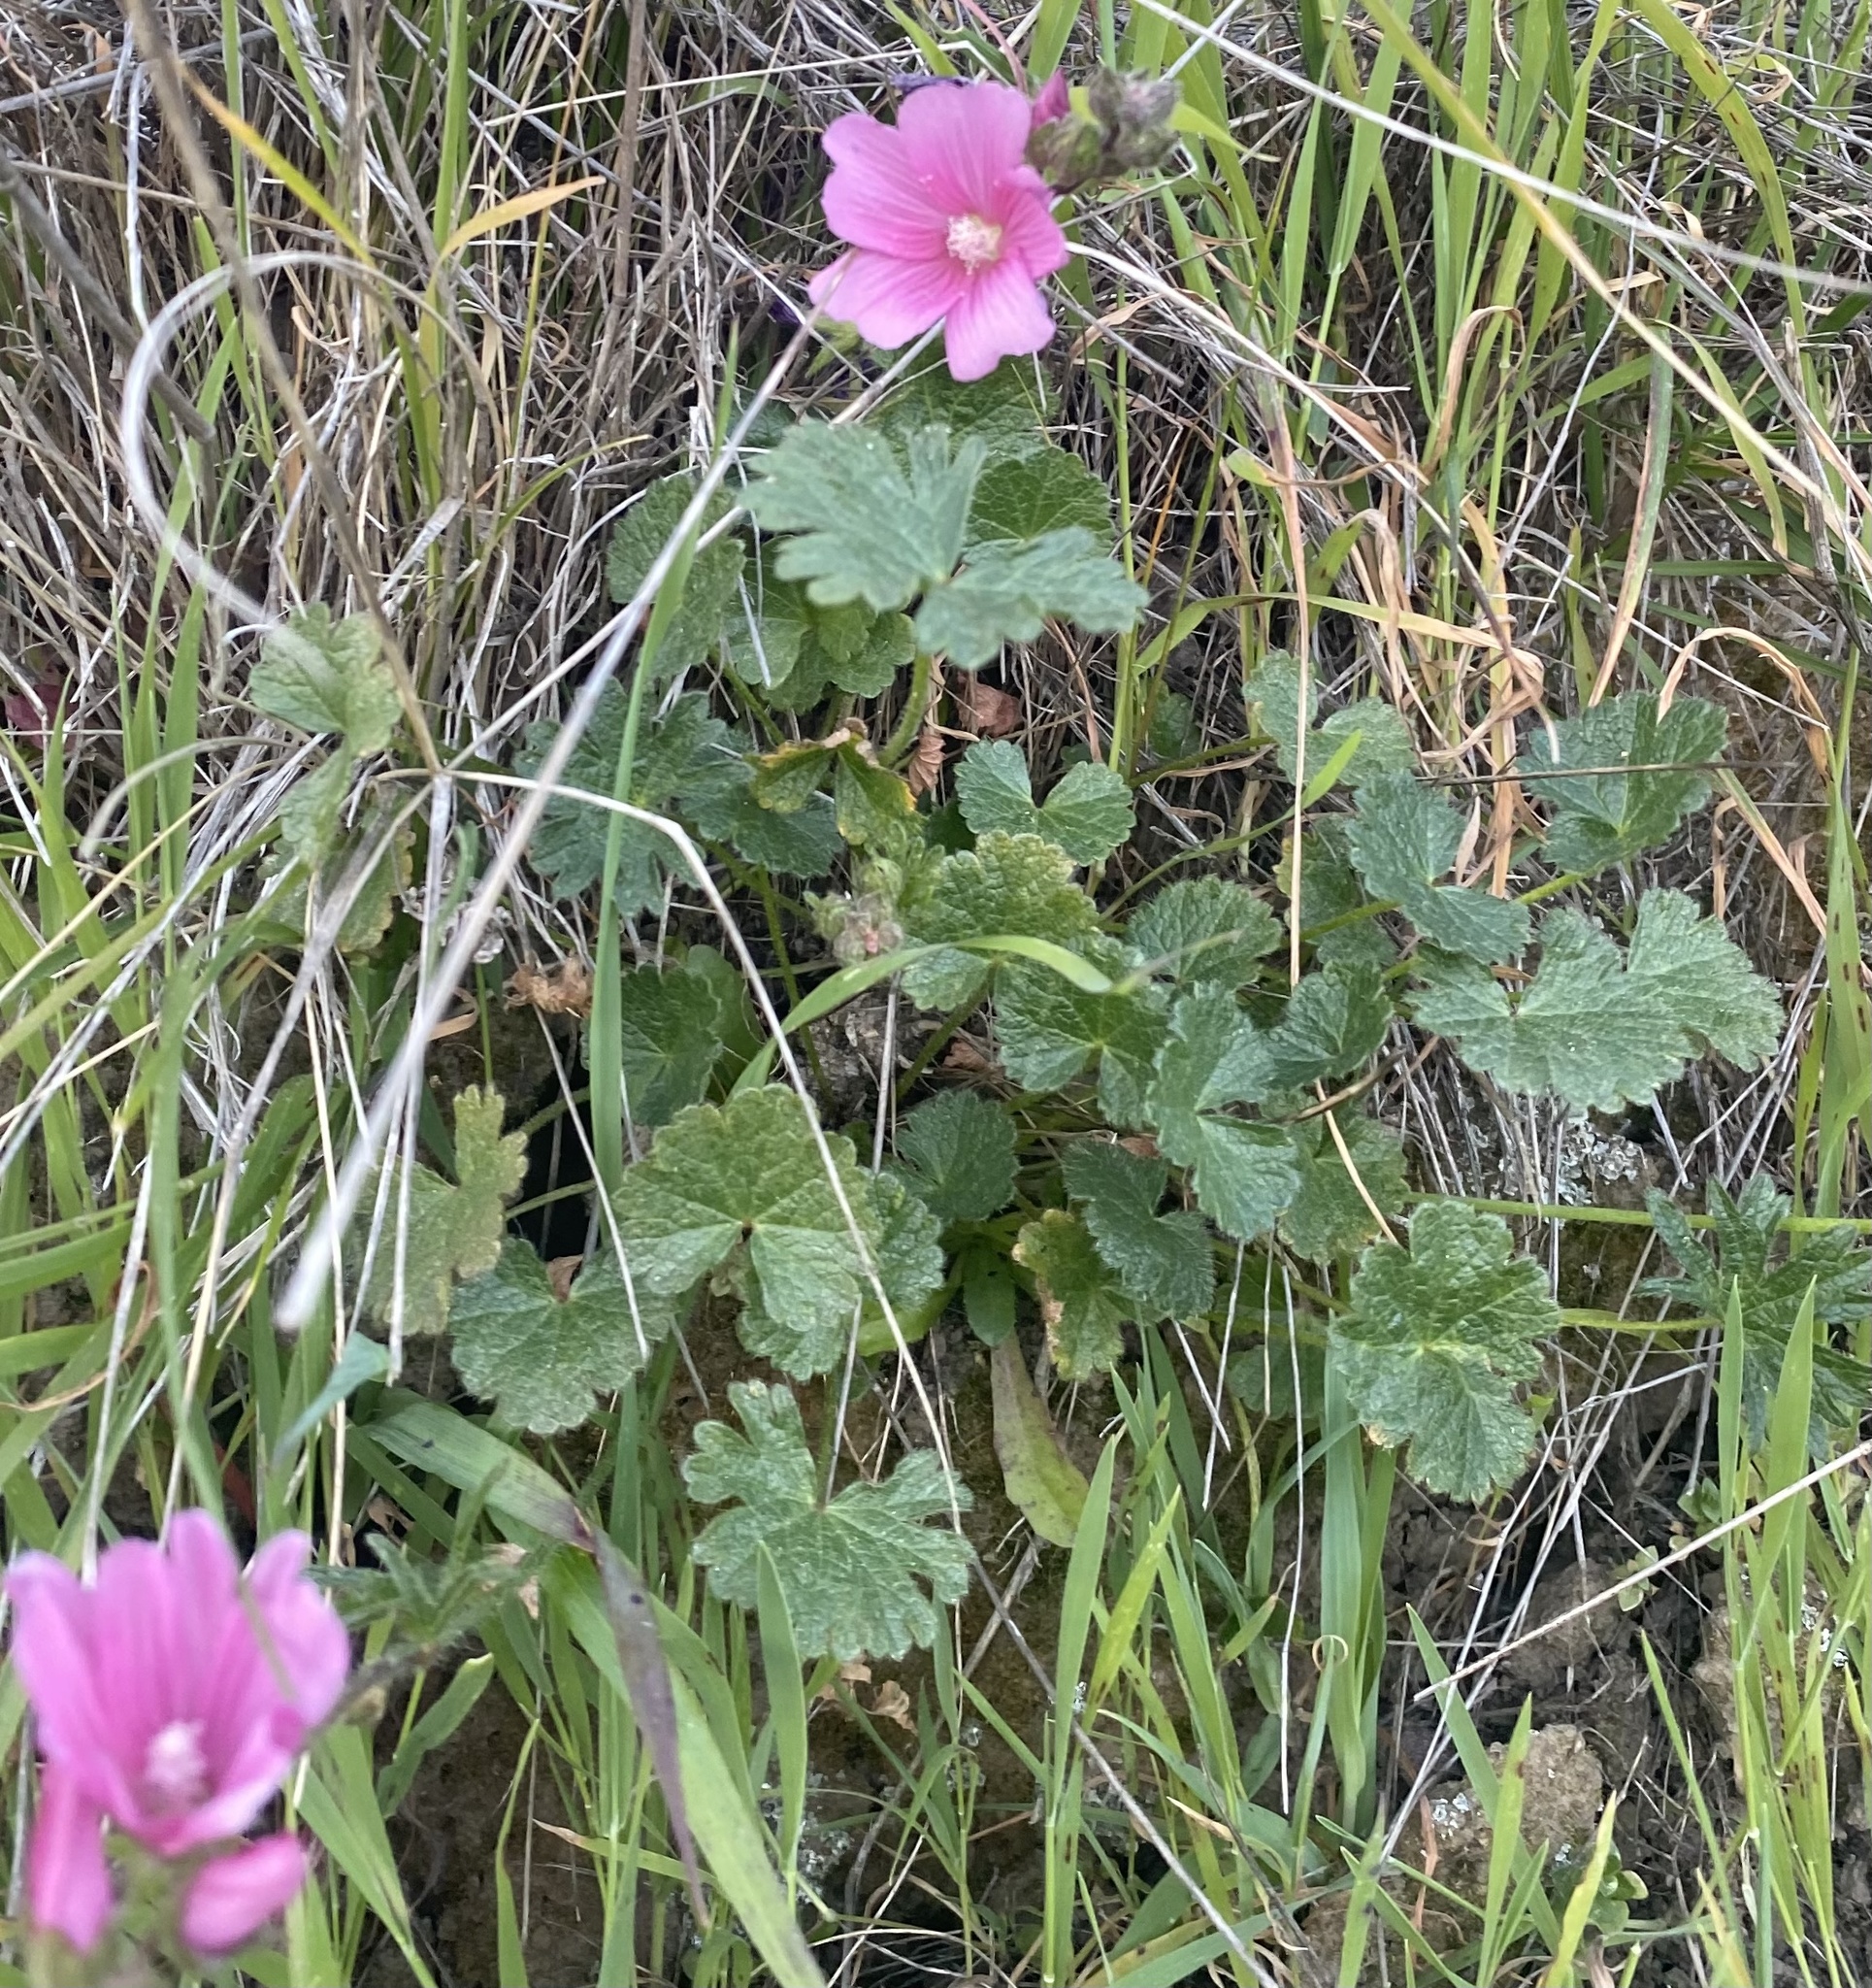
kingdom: Plantae
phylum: Tracheophyta
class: Magnoliopsida
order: Malvales
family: Malvaceae
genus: Sidalcea
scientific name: Sidalcea malviflora
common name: Greek mallow
